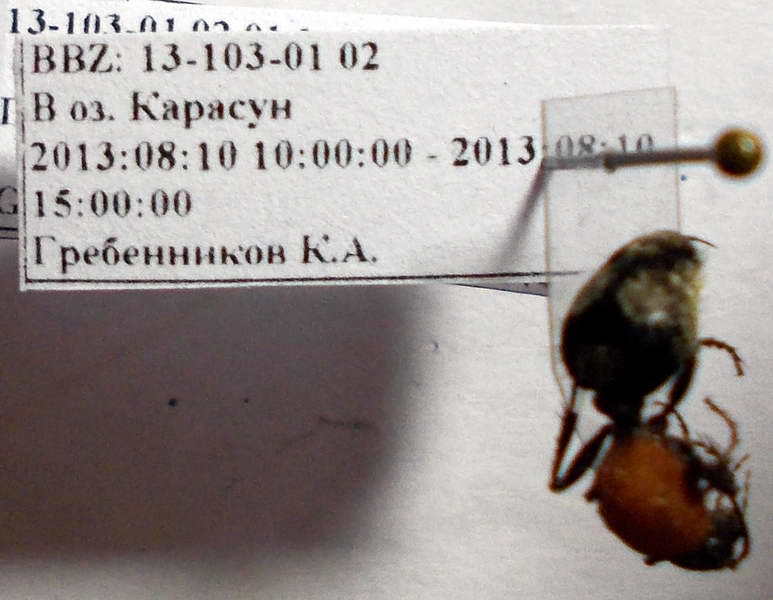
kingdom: Animalia
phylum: Arthropoda
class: Insecta
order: Hymenoptera
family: Mutillidae
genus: Dasylabris
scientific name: Dasylabris maura
